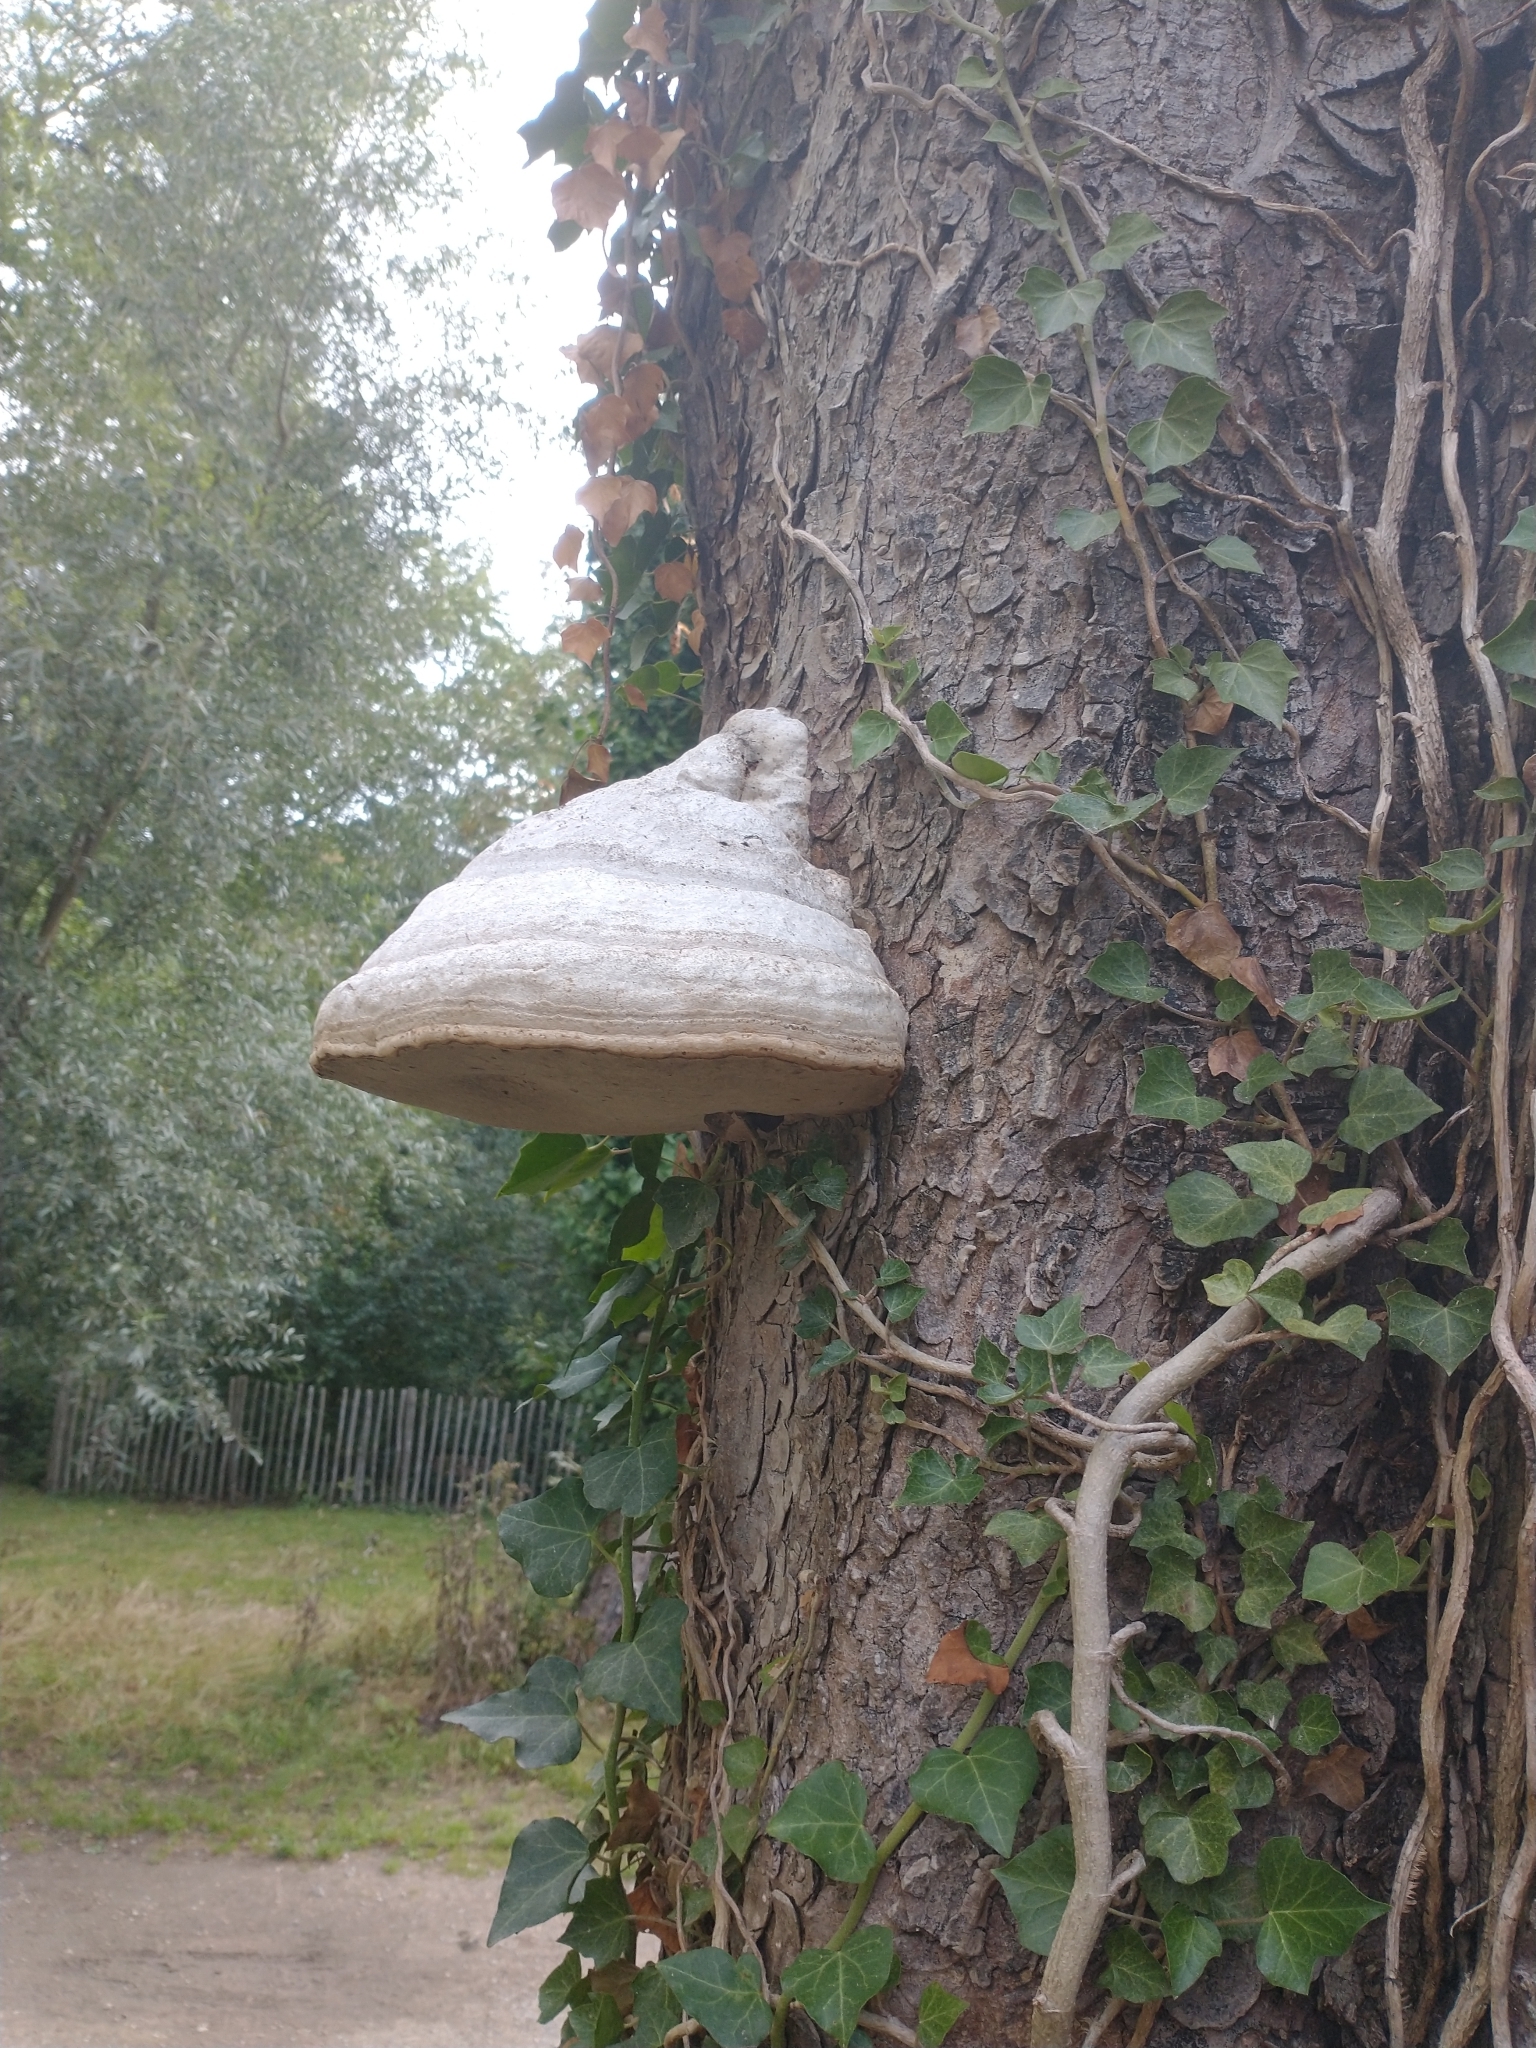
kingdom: Fungi
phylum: Basidiomycota
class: Agaricomycetes
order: Polyporales
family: Polyporaceae
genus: Fomes
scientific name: Fomes fomentarius
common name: Hoof fungus
